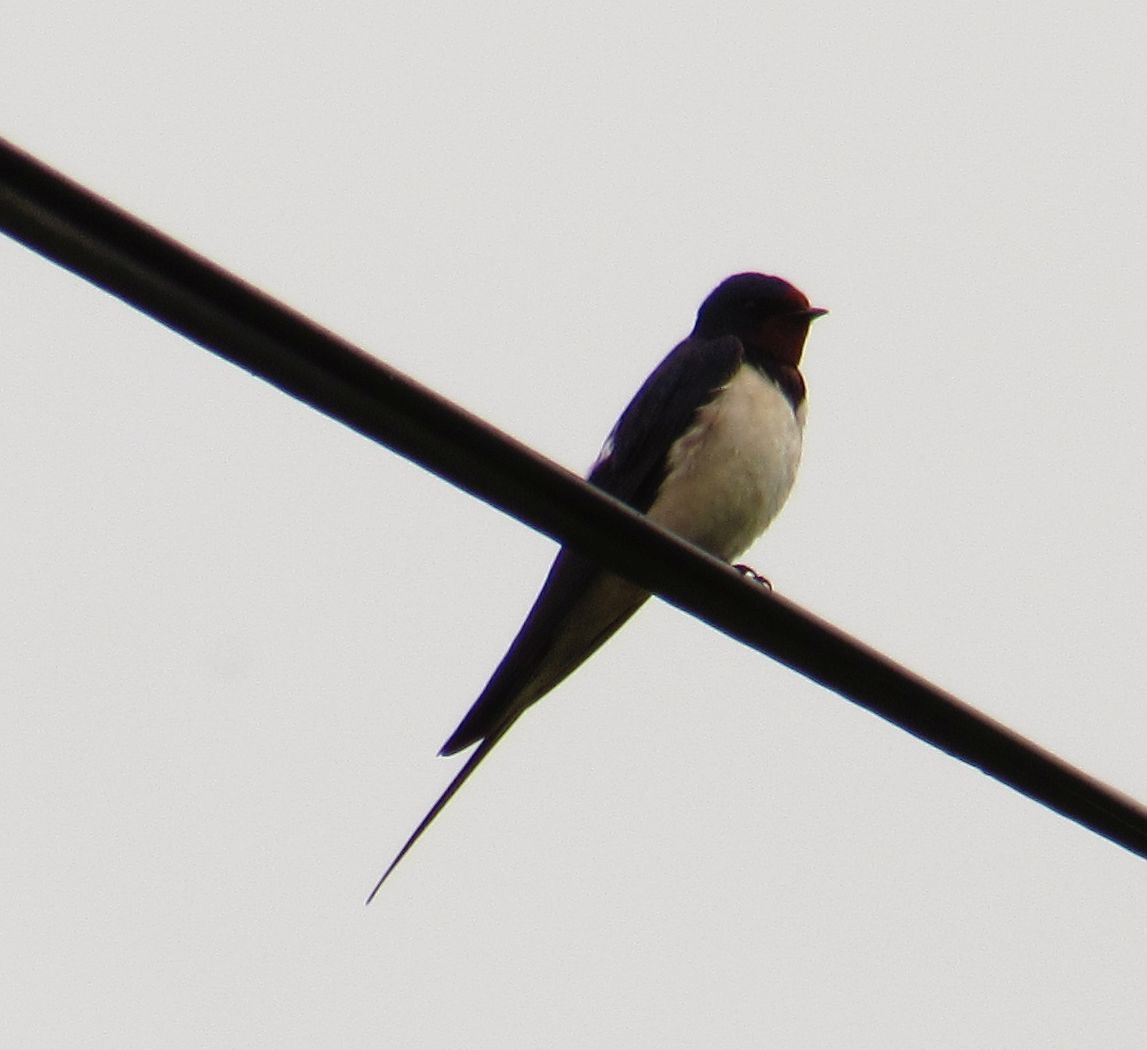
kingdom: Animalia
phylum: Chordata
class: Aves
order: Passeriformes
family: Hirundinidae
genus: Hirundo
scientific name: Hirundo rustica
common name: Barn swallow
